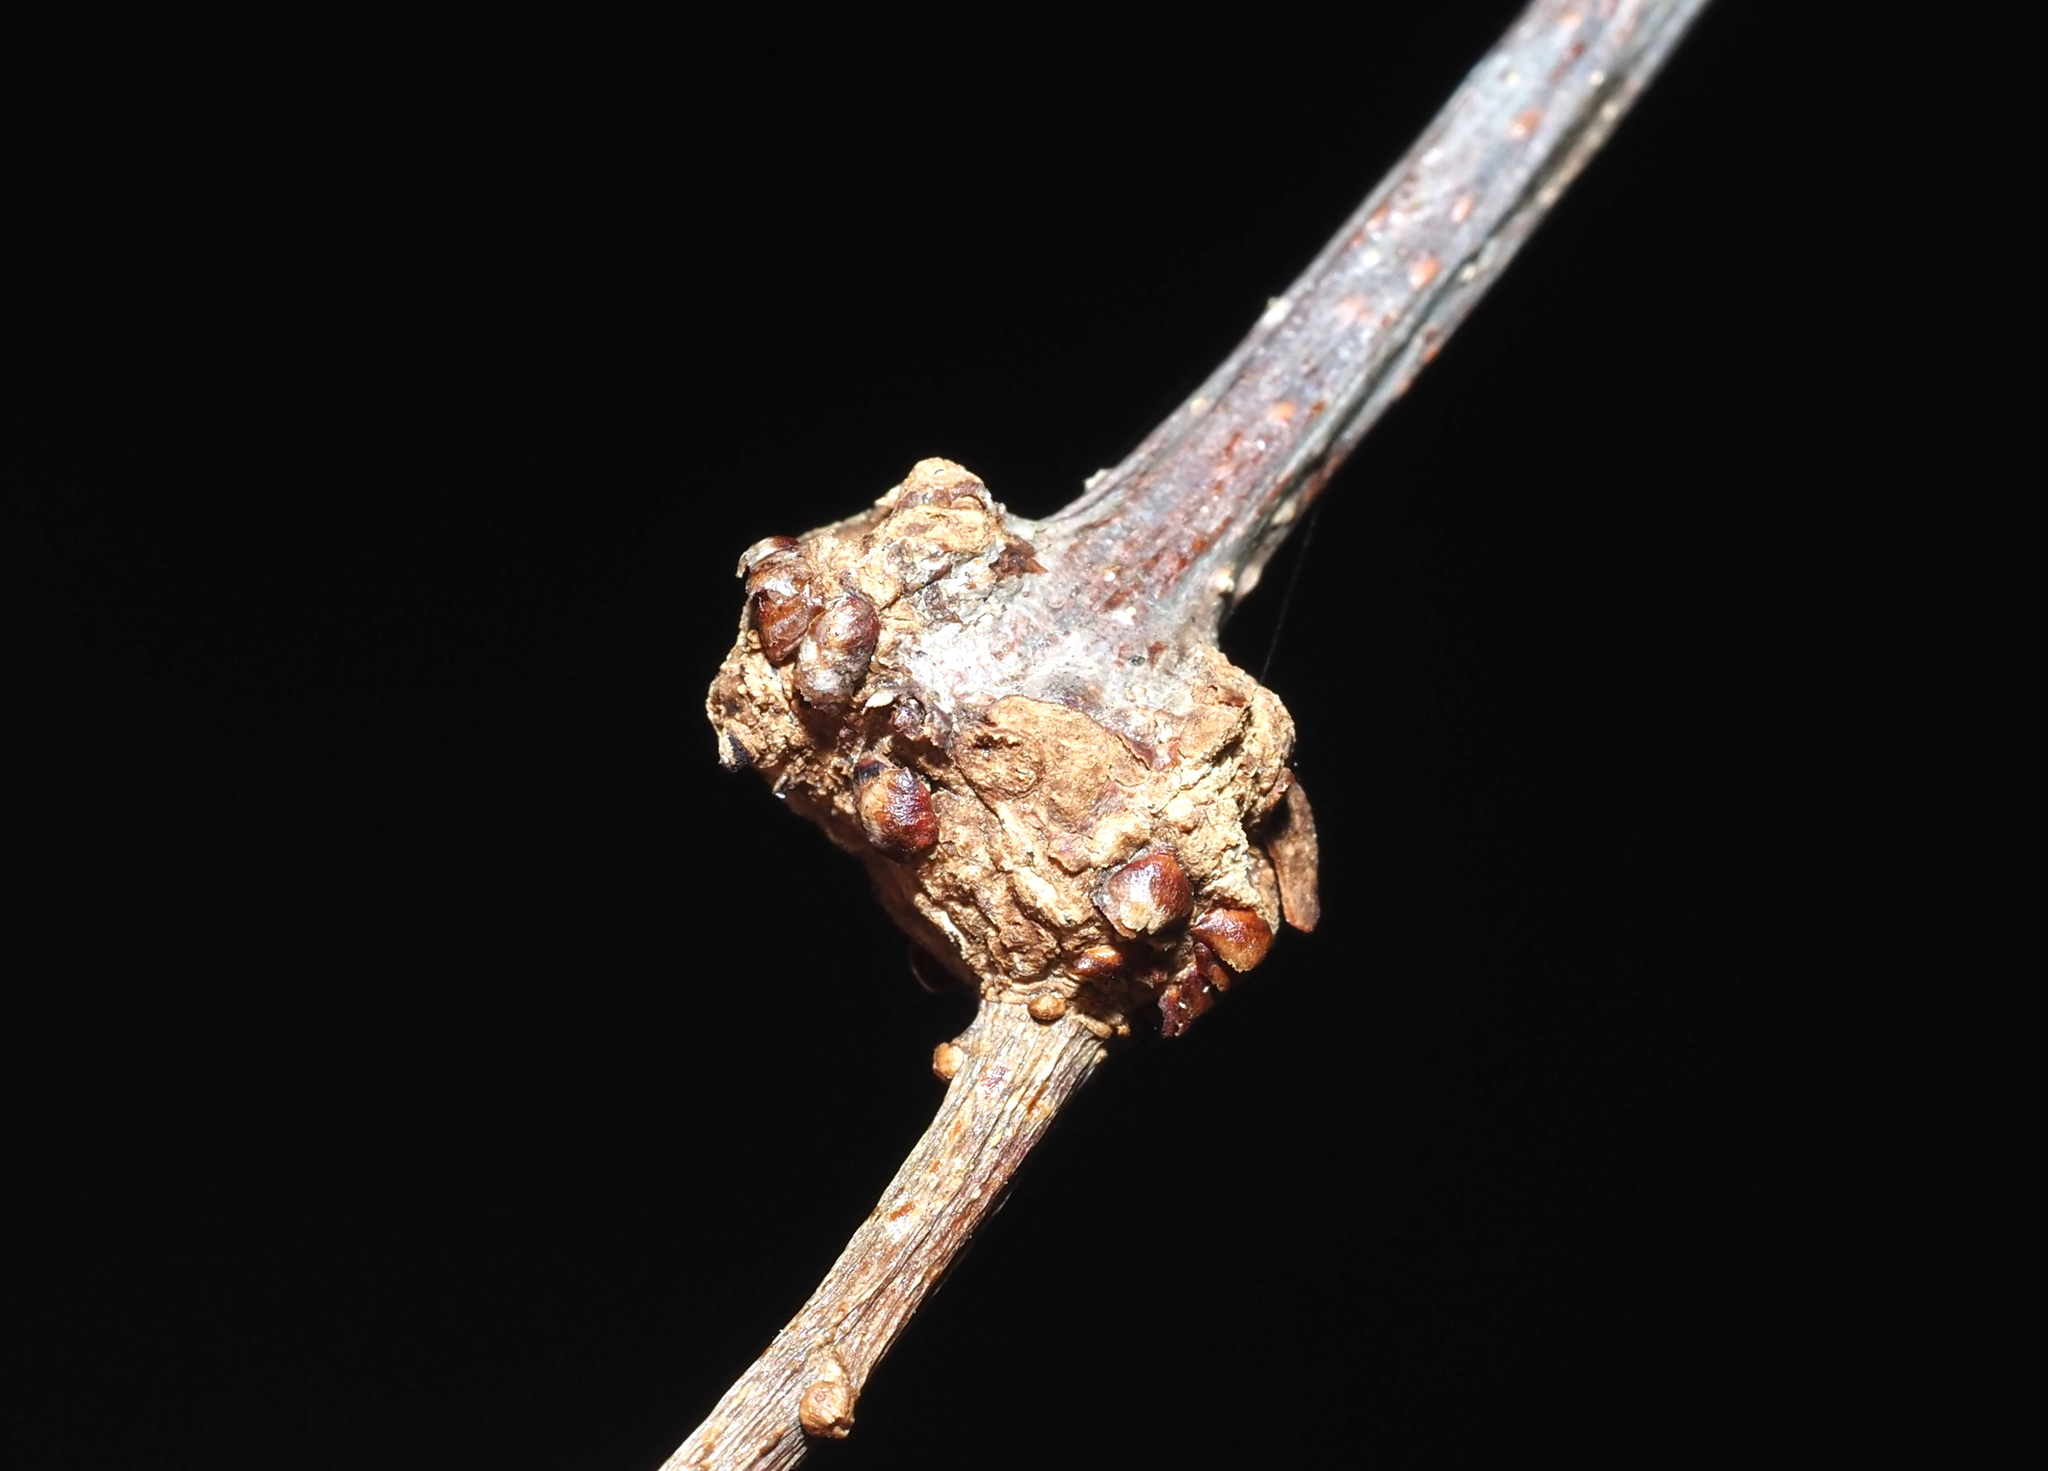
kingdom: Animalia
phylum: Arthropoda
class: Insecta
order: Hymenoptera
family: Cynipidae
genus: Loxaulus
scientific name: Loxaulus
